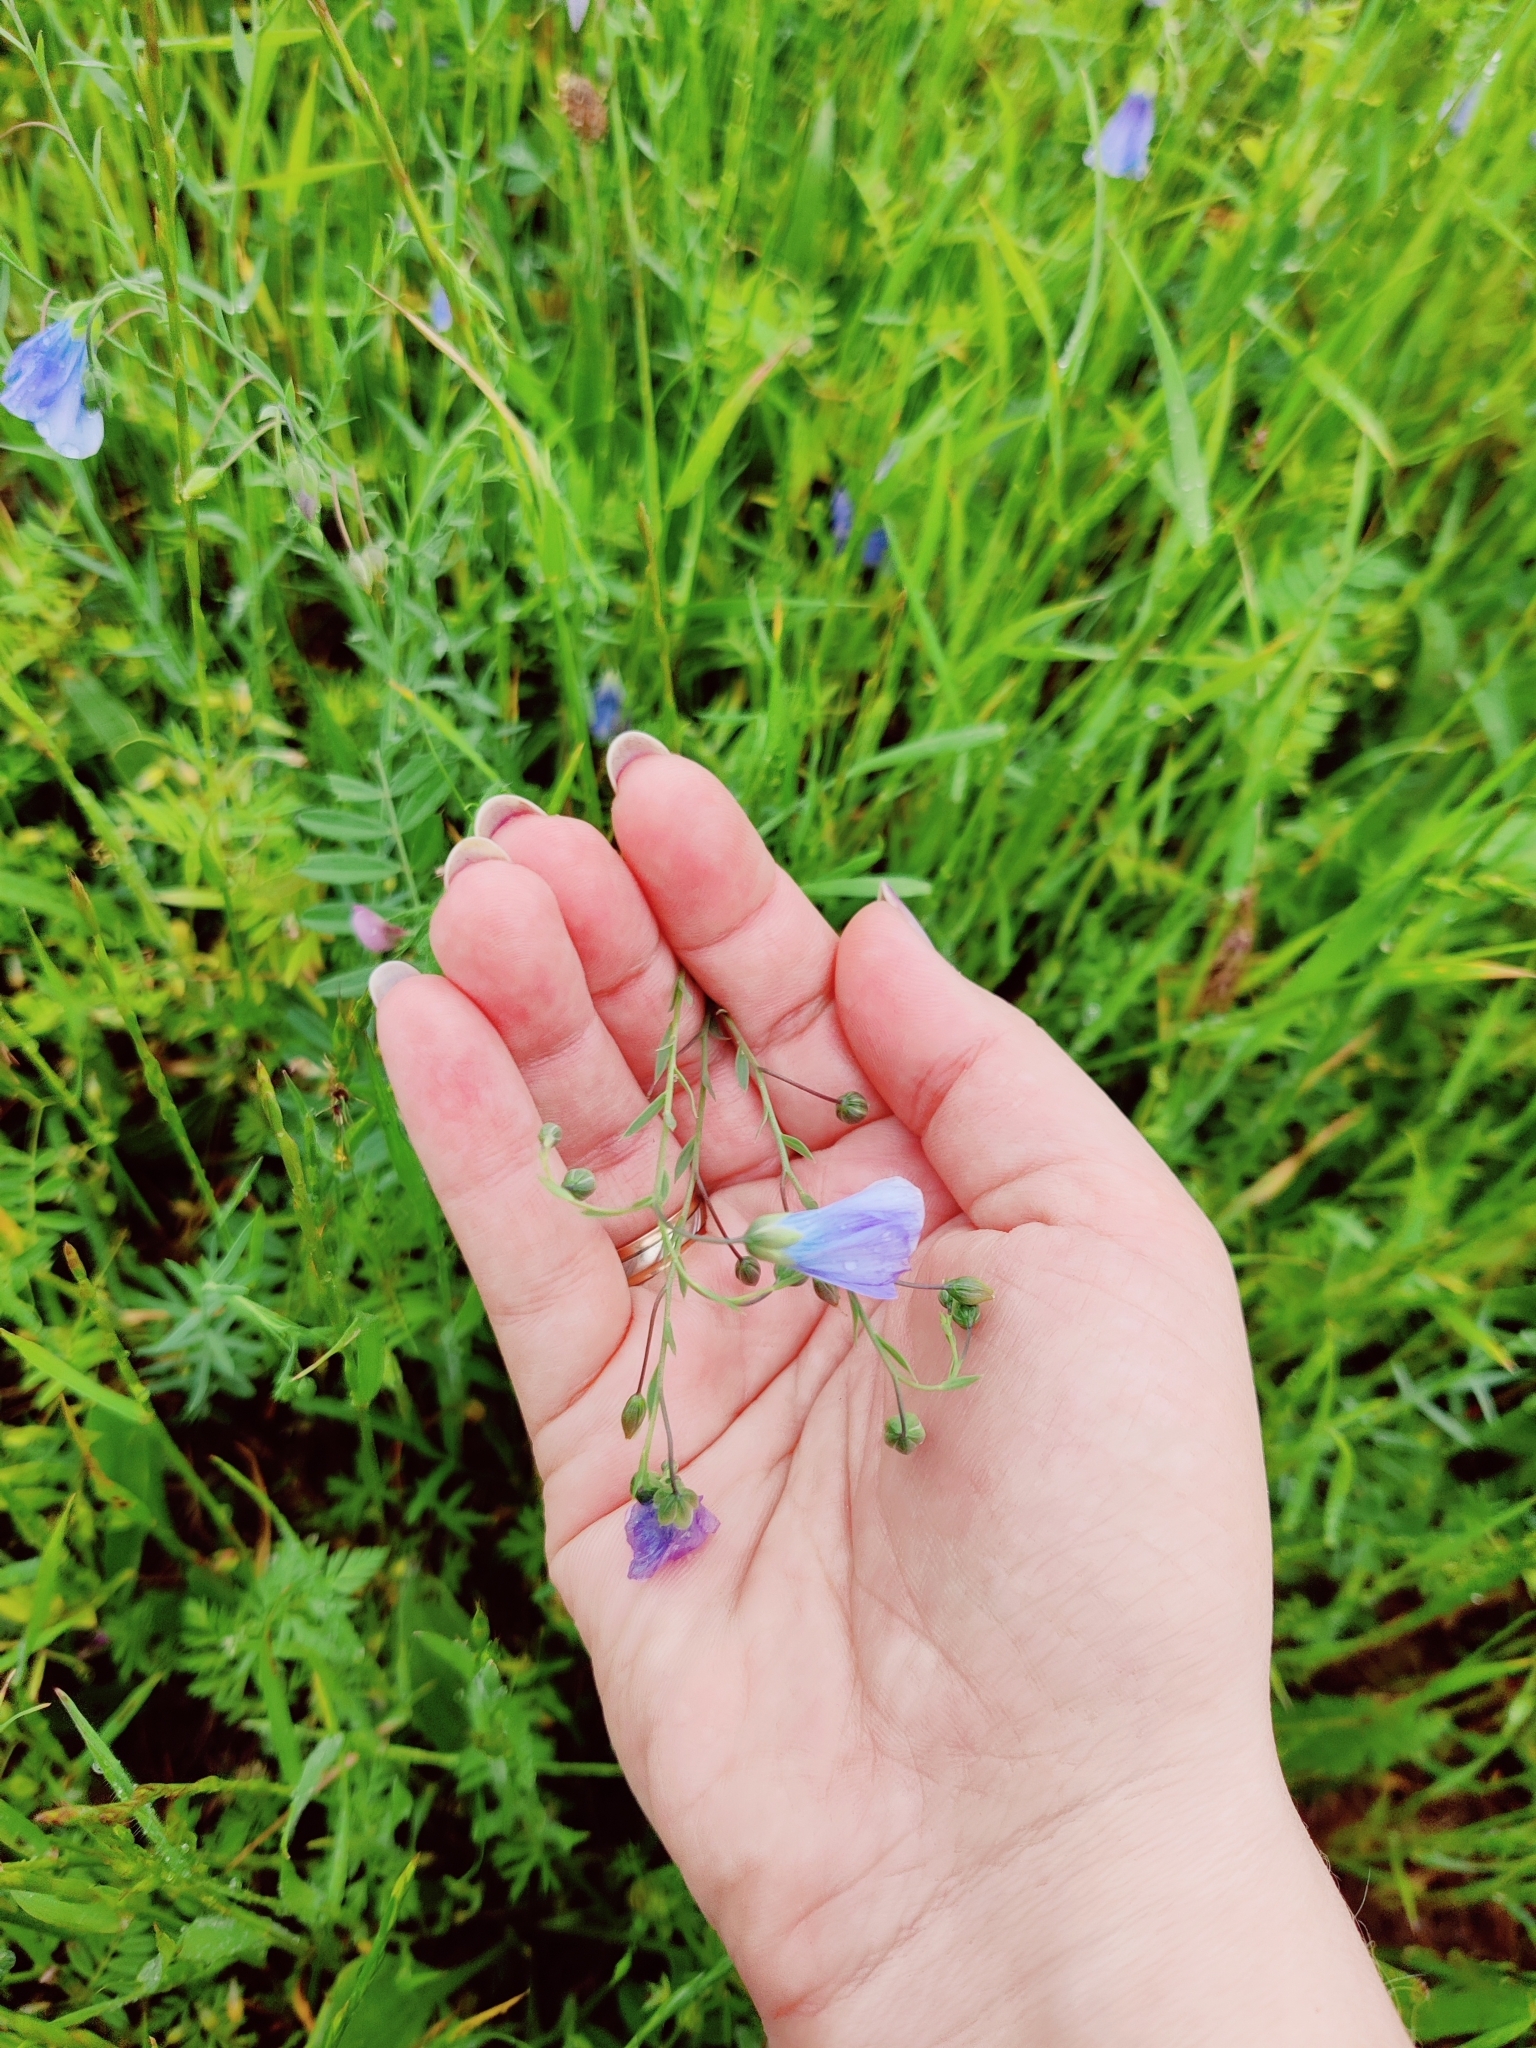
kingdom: Plantae
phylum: Tracheophyta
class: Magnoliopsida
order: Malpighiales
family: Linaceae
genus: Linum
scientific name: Linum austriacum
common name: Austrian flax
